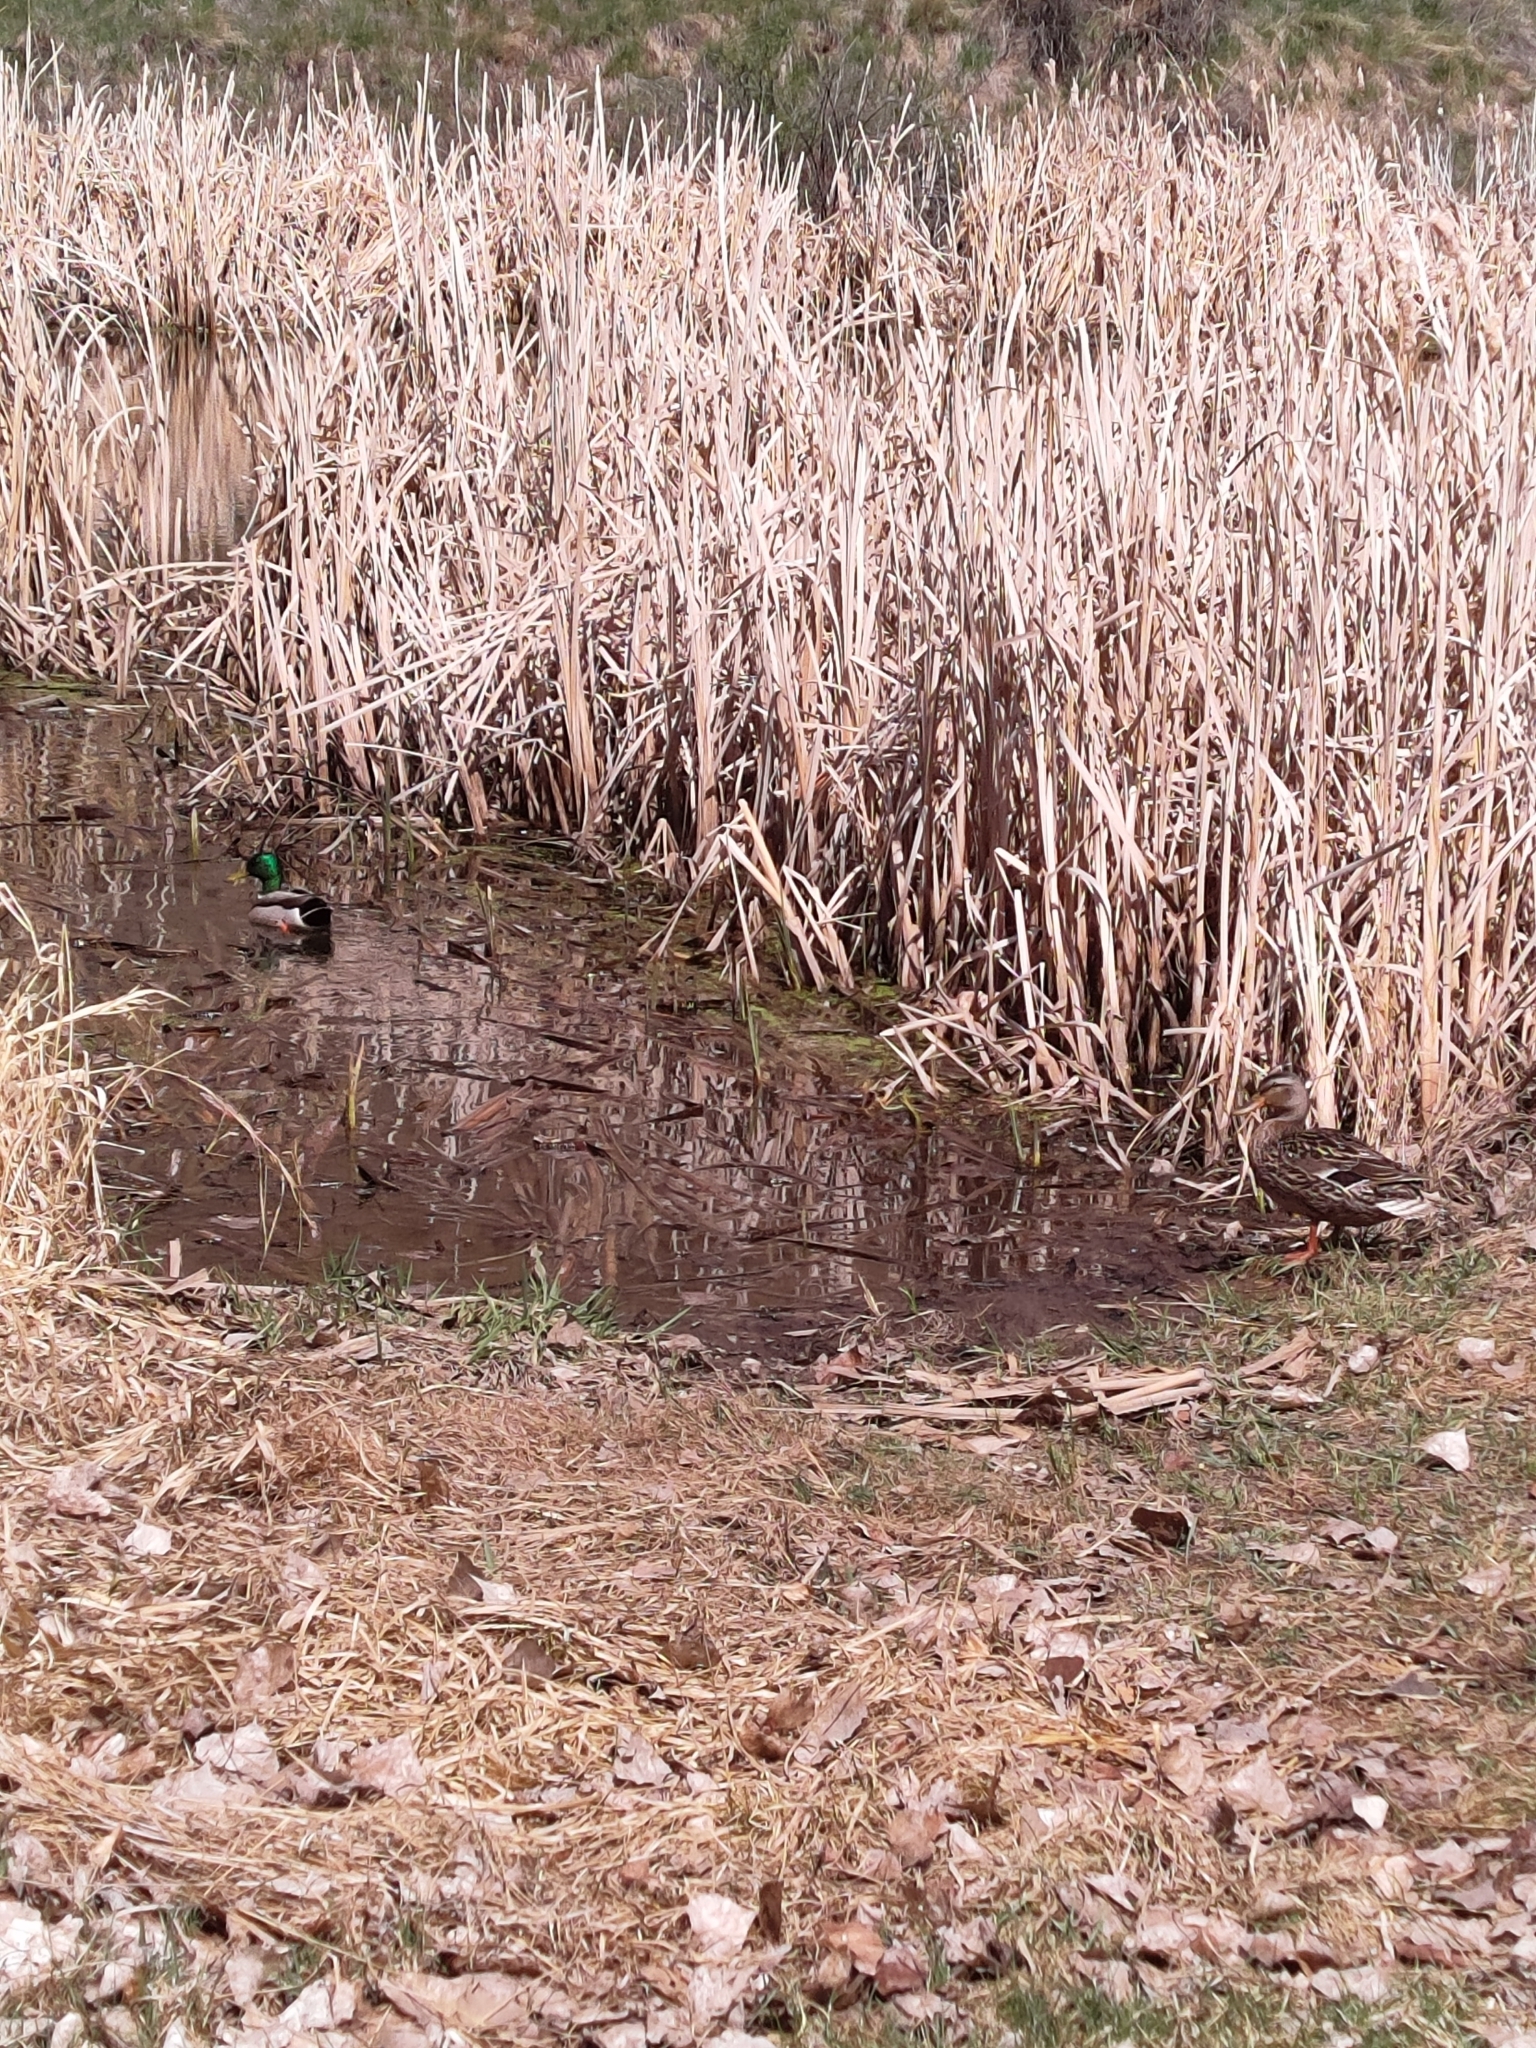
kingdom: Animalia
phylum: Chordata
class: Aves
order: Anseriformes
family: Anatidae
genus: Anas
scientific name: Anas platyrhynchos
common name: Mallard
